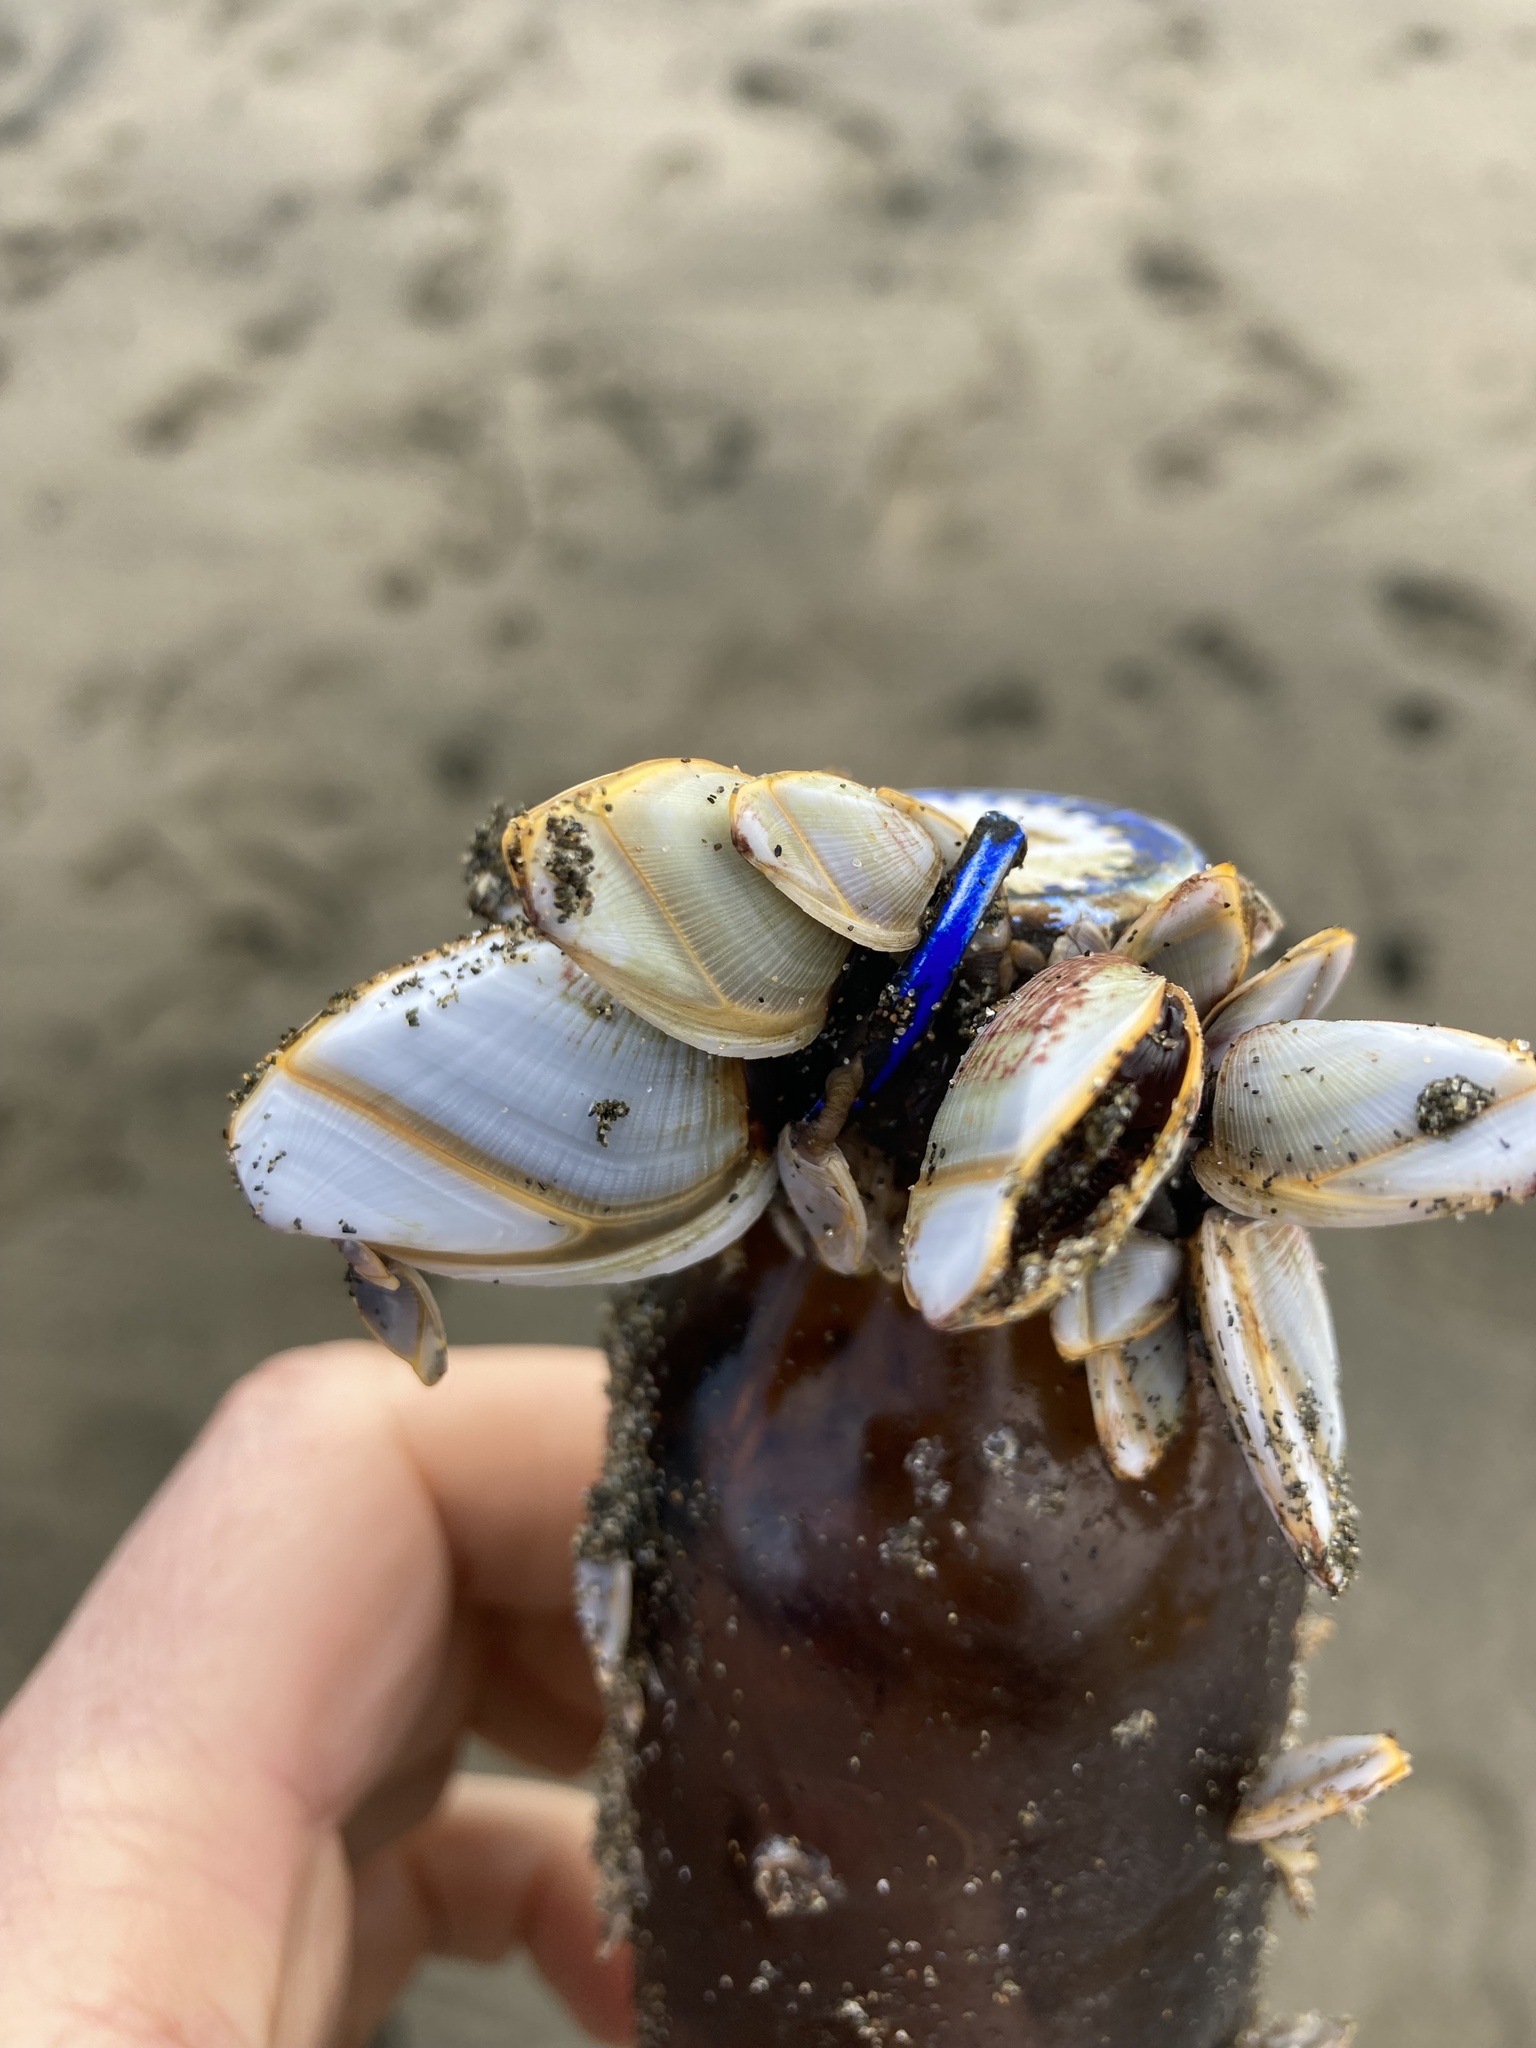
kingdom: Animalia
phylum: Arthropoda
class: Maxillopoda
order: Pedunculata
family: Lepadidae
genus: Lepas
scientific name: Lepas anatifera
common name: Common goose barnacle
